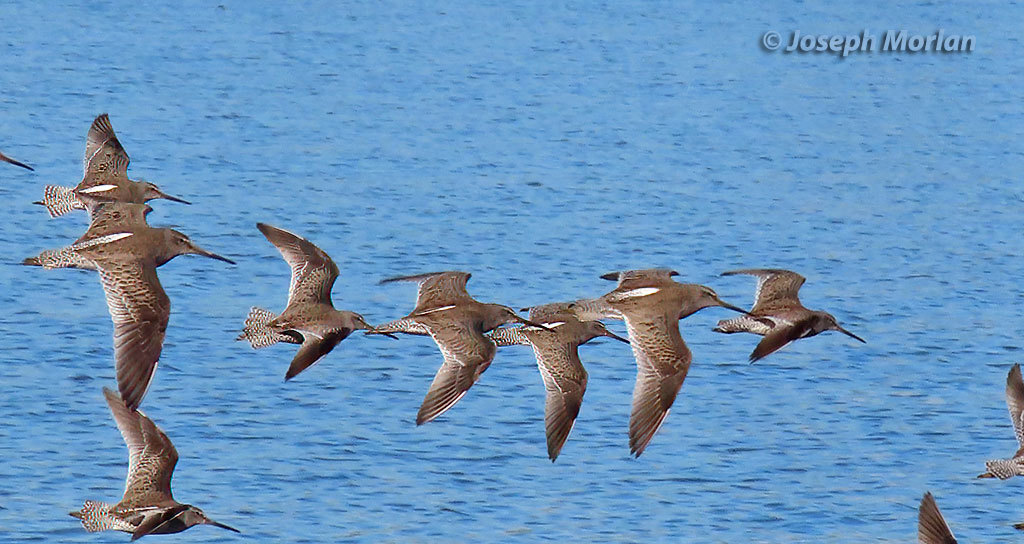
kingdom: Animalia
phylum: Chordata
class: Aves
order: Charadriiformes
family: Scolopacidae
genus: Limnodromus
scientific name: Limnodromus griseus
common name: Short-billed dowitcher
